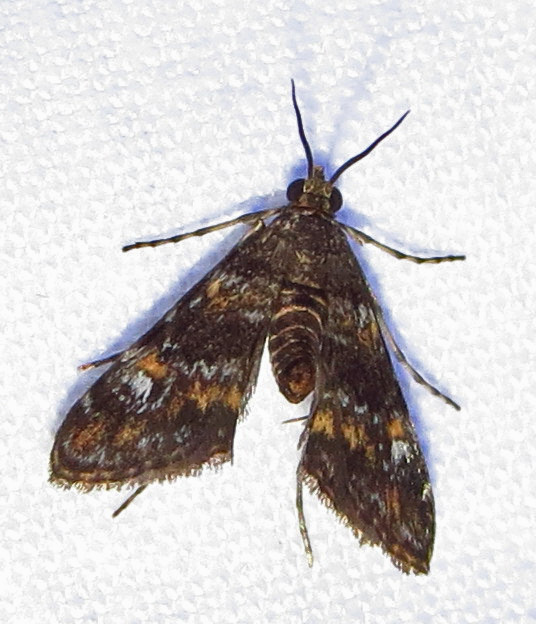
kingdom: Animalia
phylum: Arthropoda
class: Insecta
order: Lepidoptera
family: Crambidae
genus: Elophila
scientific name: Elophila obliteralis
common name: Waterlily leafcutter moth
